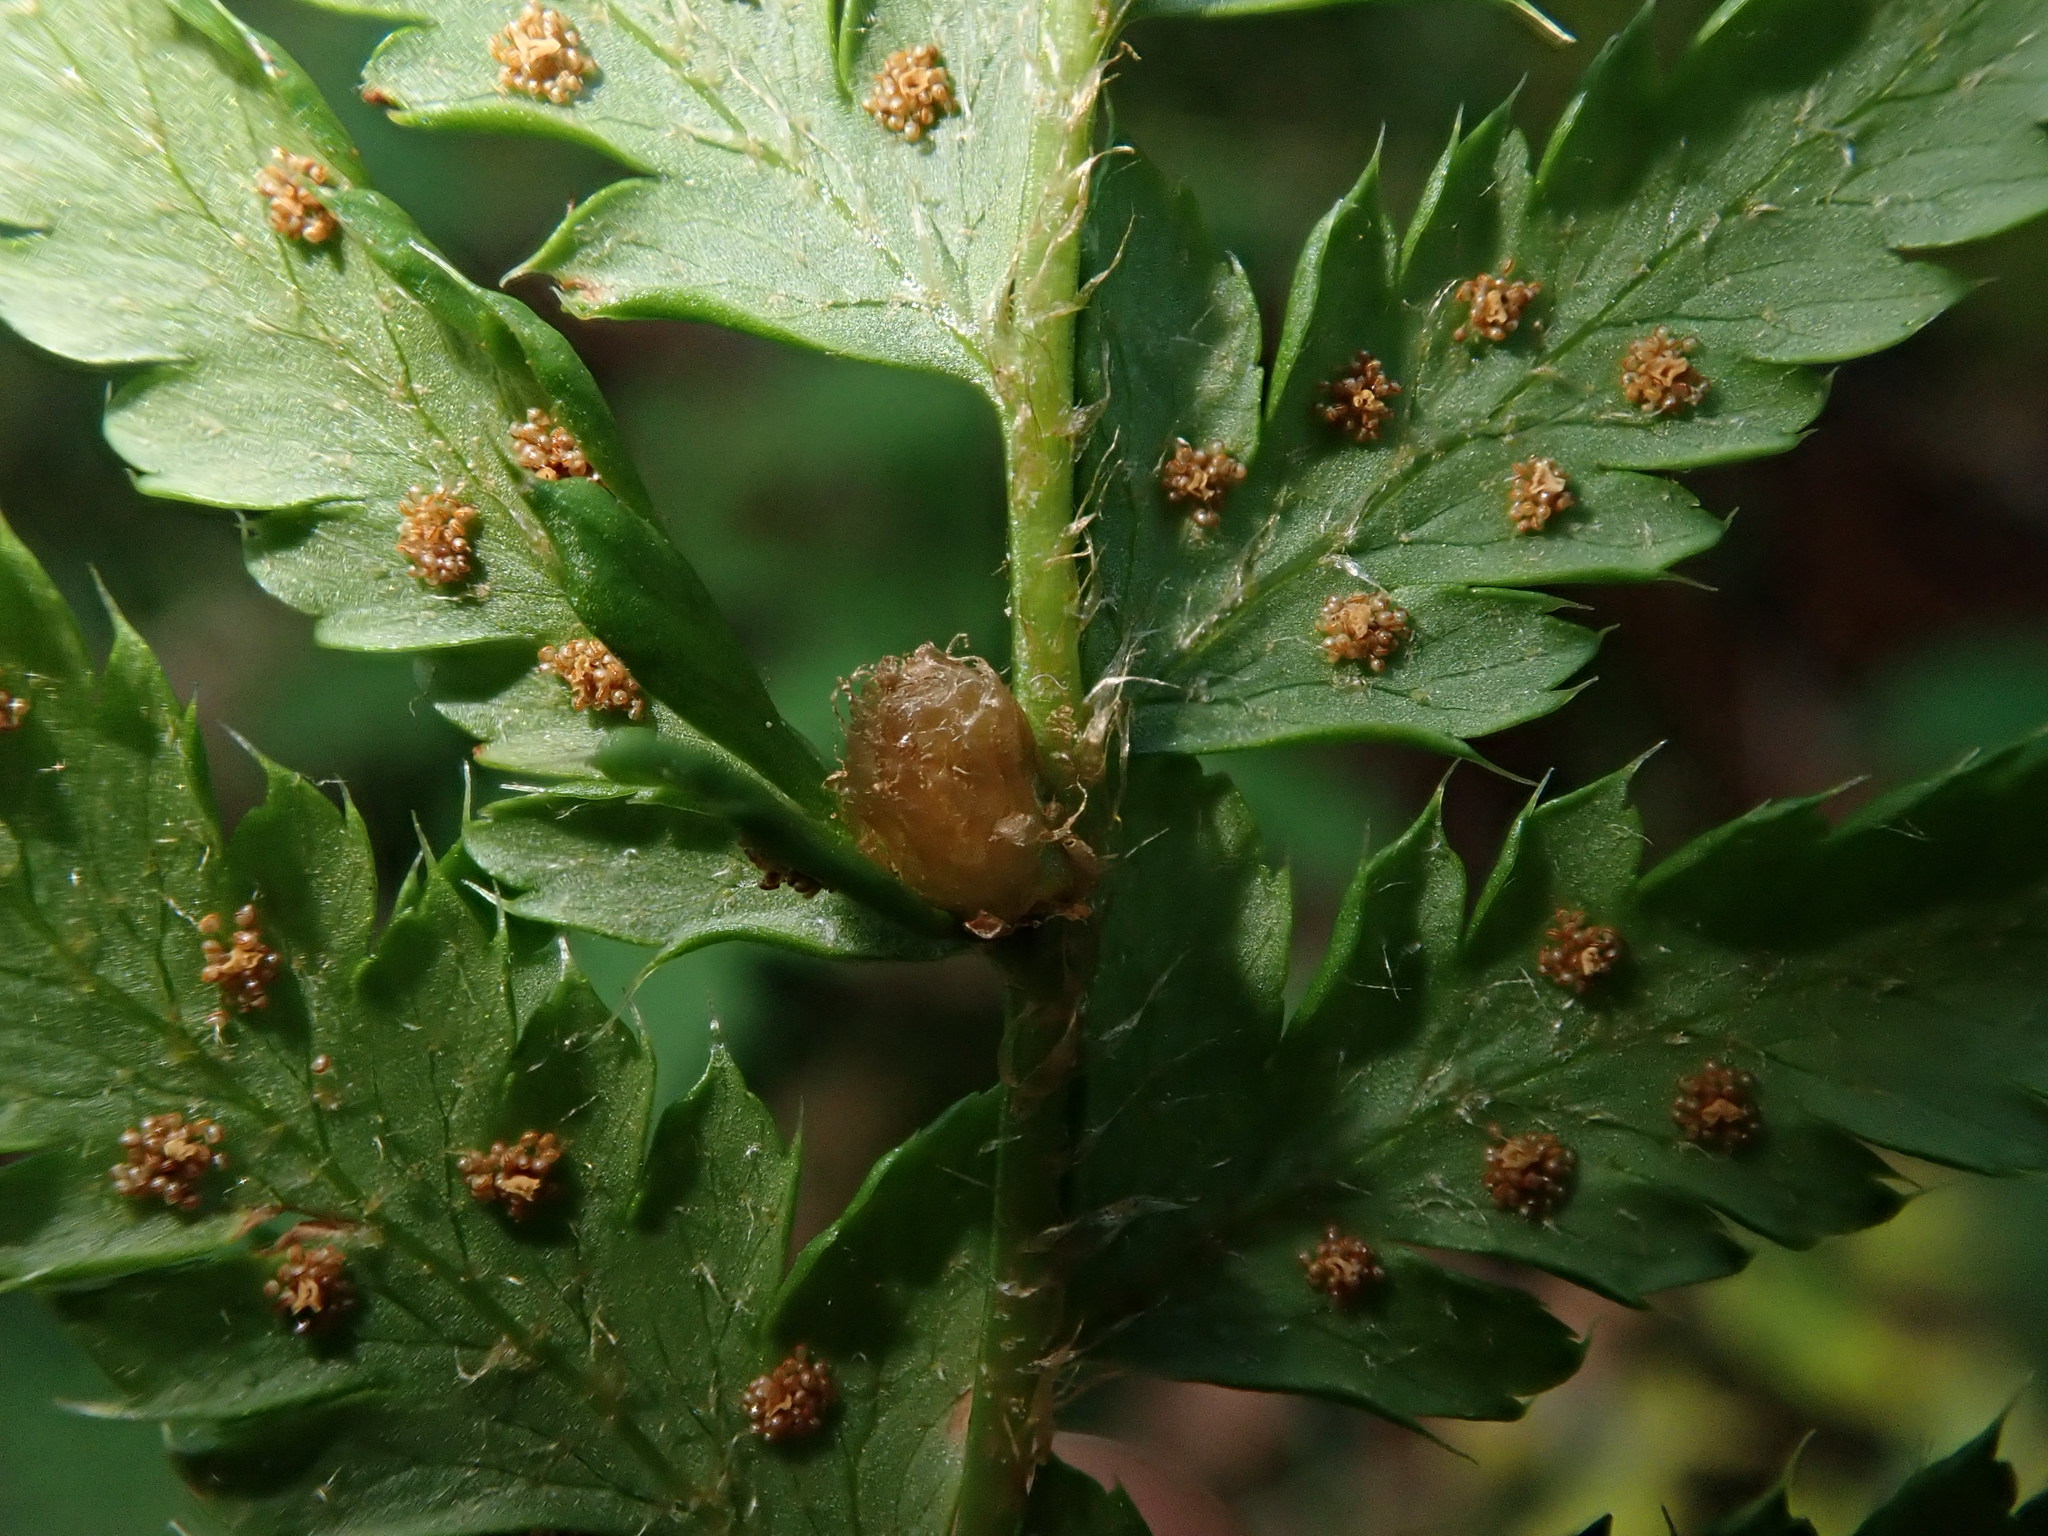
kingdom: Plantae
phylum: Tracheophyta
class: Polypodiopsida
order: Polypodiales
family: Dryopteridaceae
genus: Polystichum
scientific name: Polystichum andersonii
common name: Anderson's holly fern
